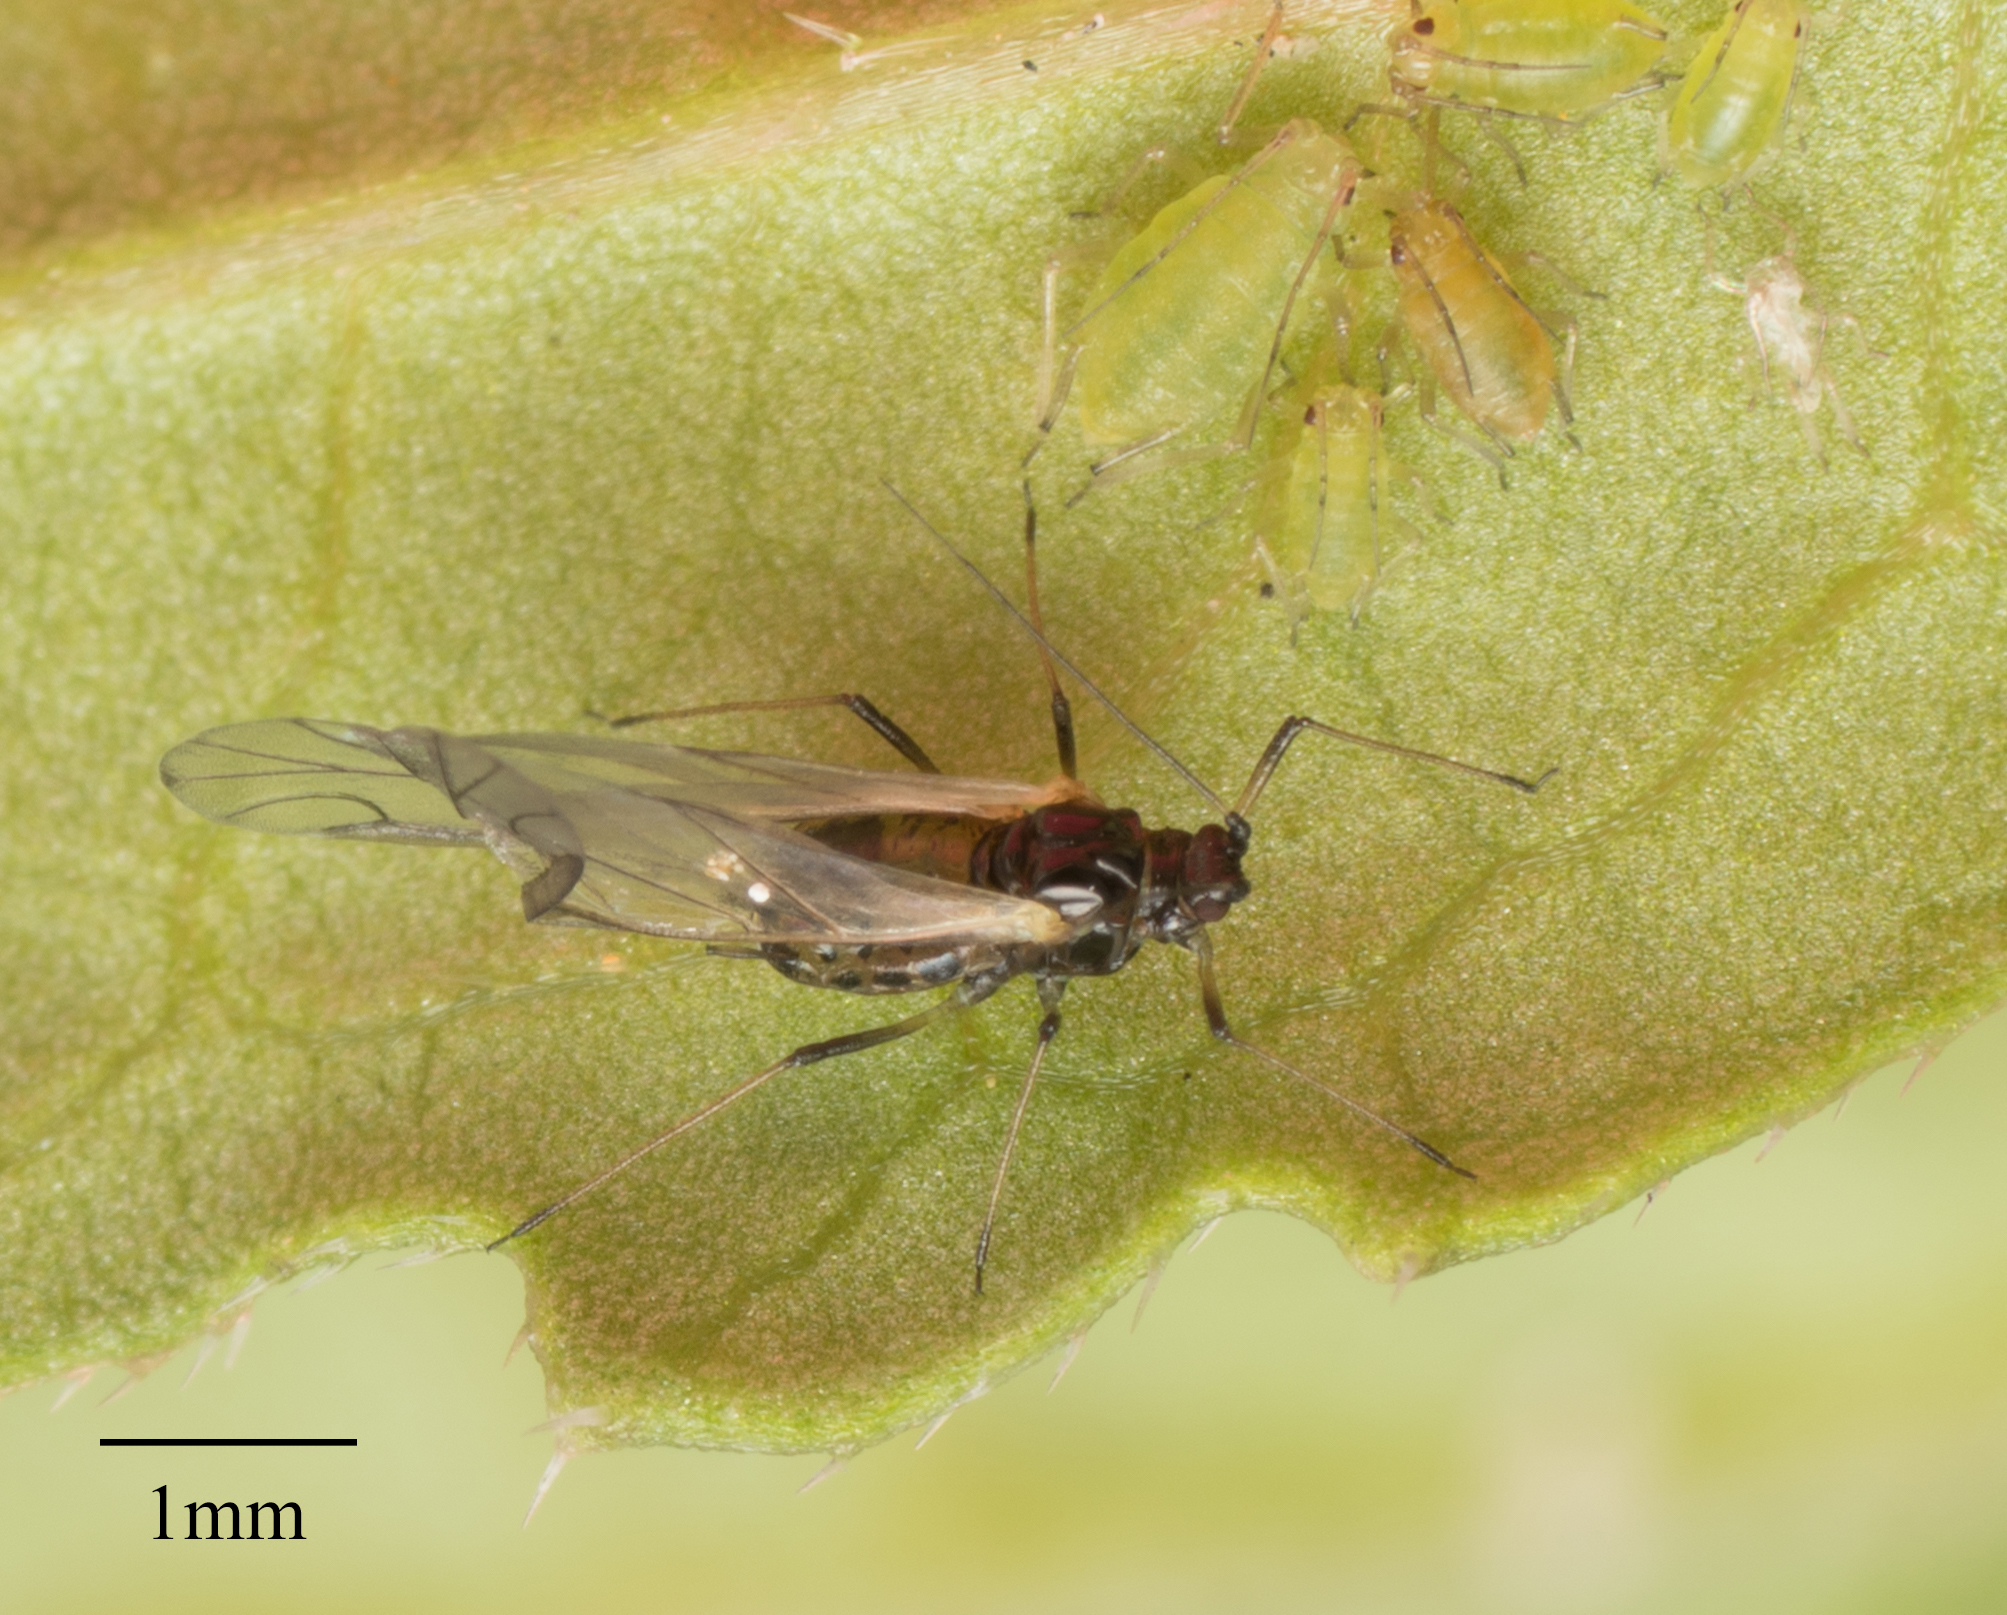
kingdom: Animalia
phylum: Arthropoda
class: Insecta
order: Hemiptera
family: Aphididae
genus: Myzus
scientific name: Myzus persicae
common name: Green peach aphid
